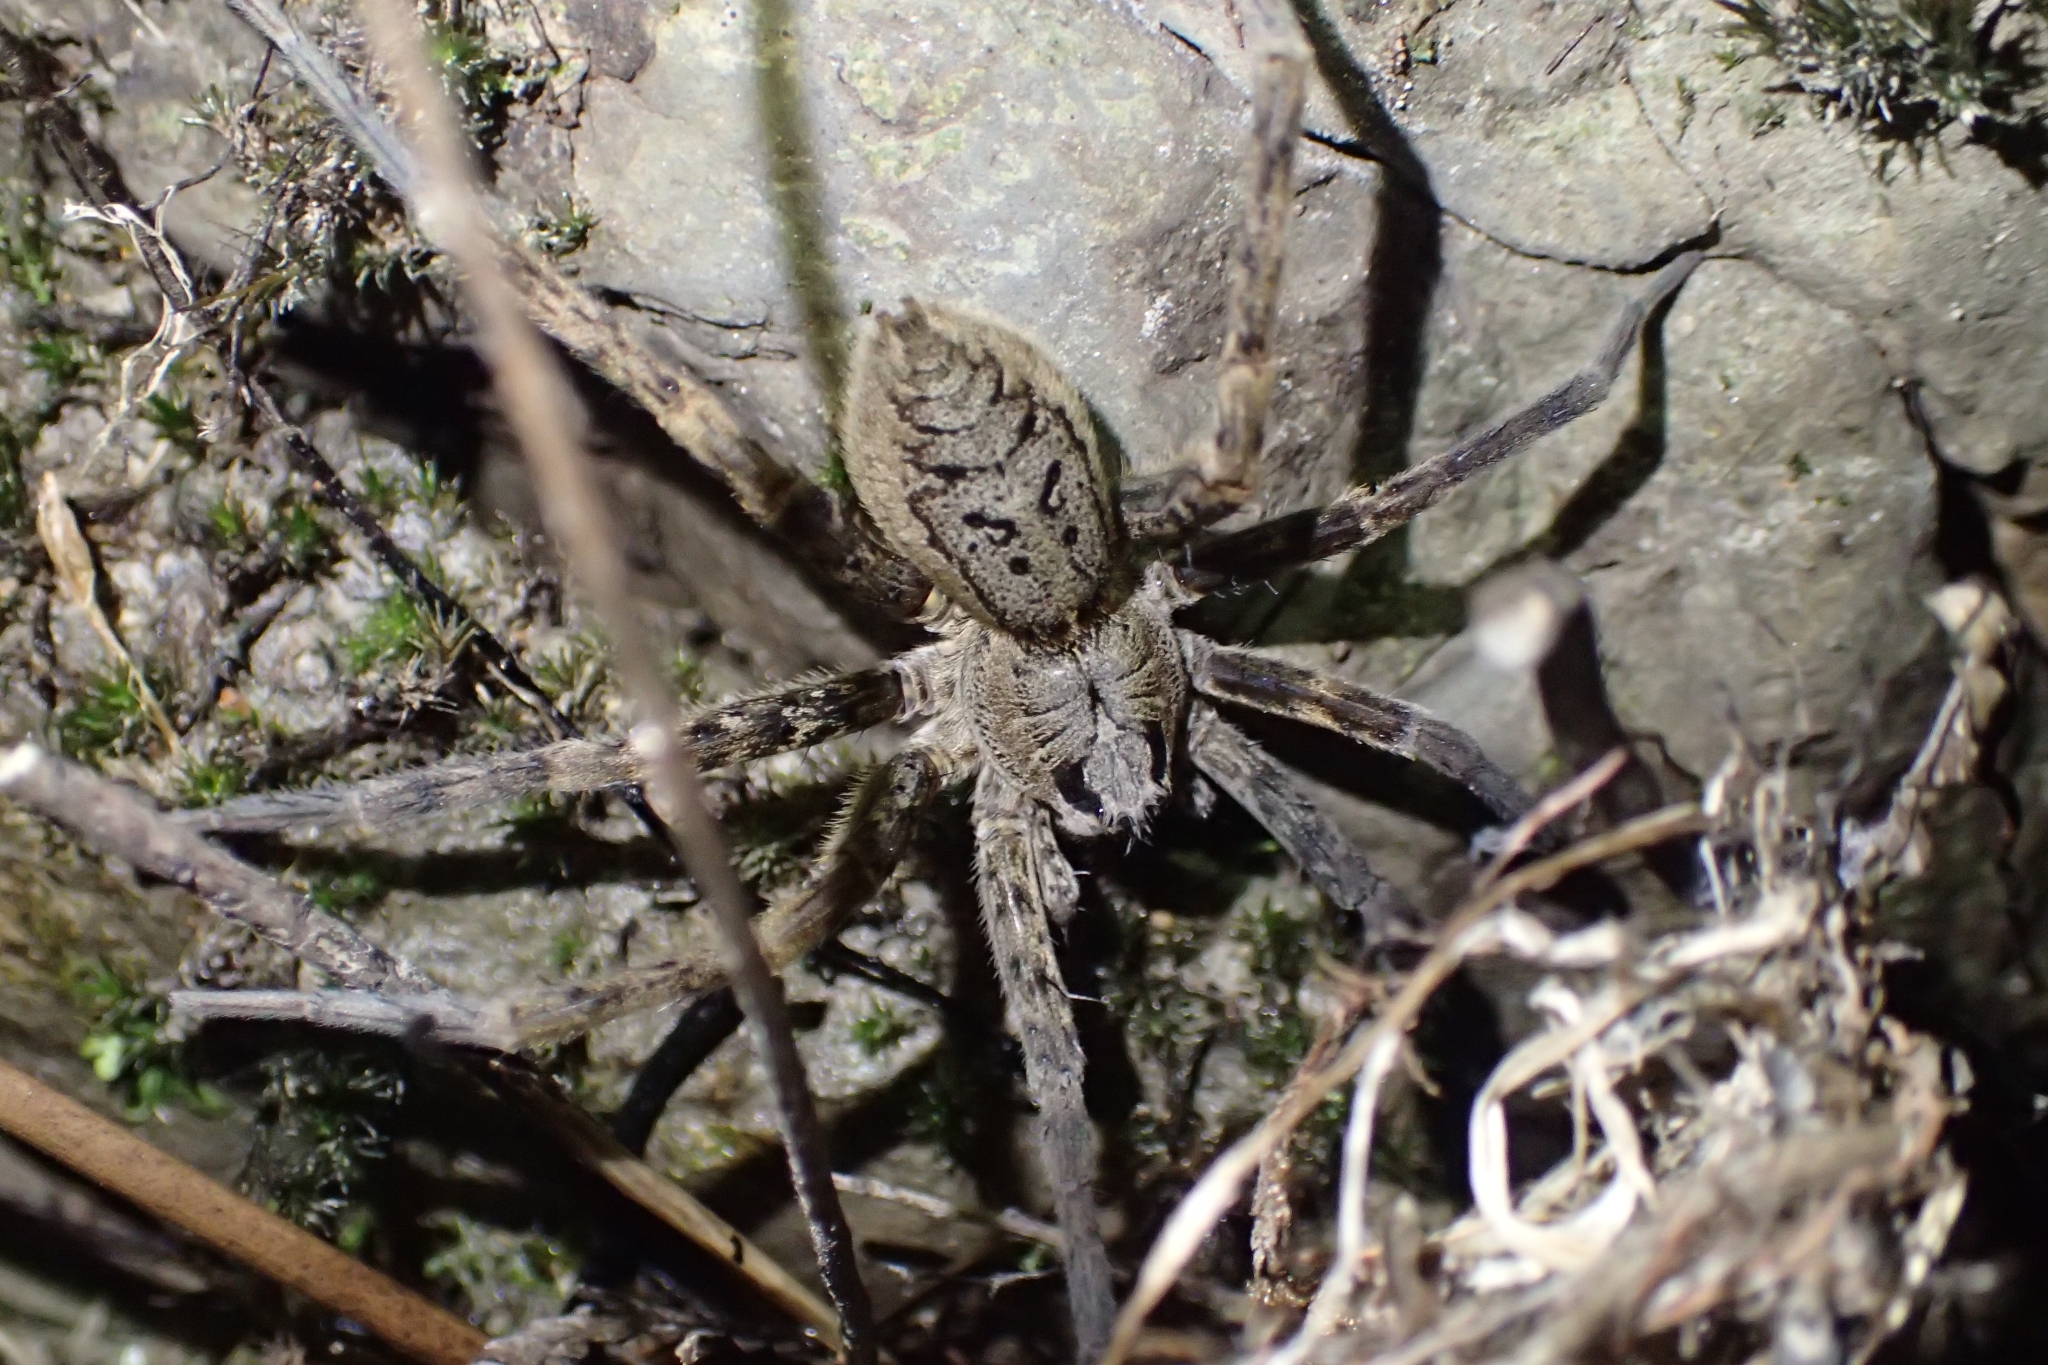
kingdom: Animalia
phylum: Arthropoda
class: Arachnida
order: Araneae
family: Pisauridae
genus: Dolomedes
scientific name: Dolomedes dondalei
